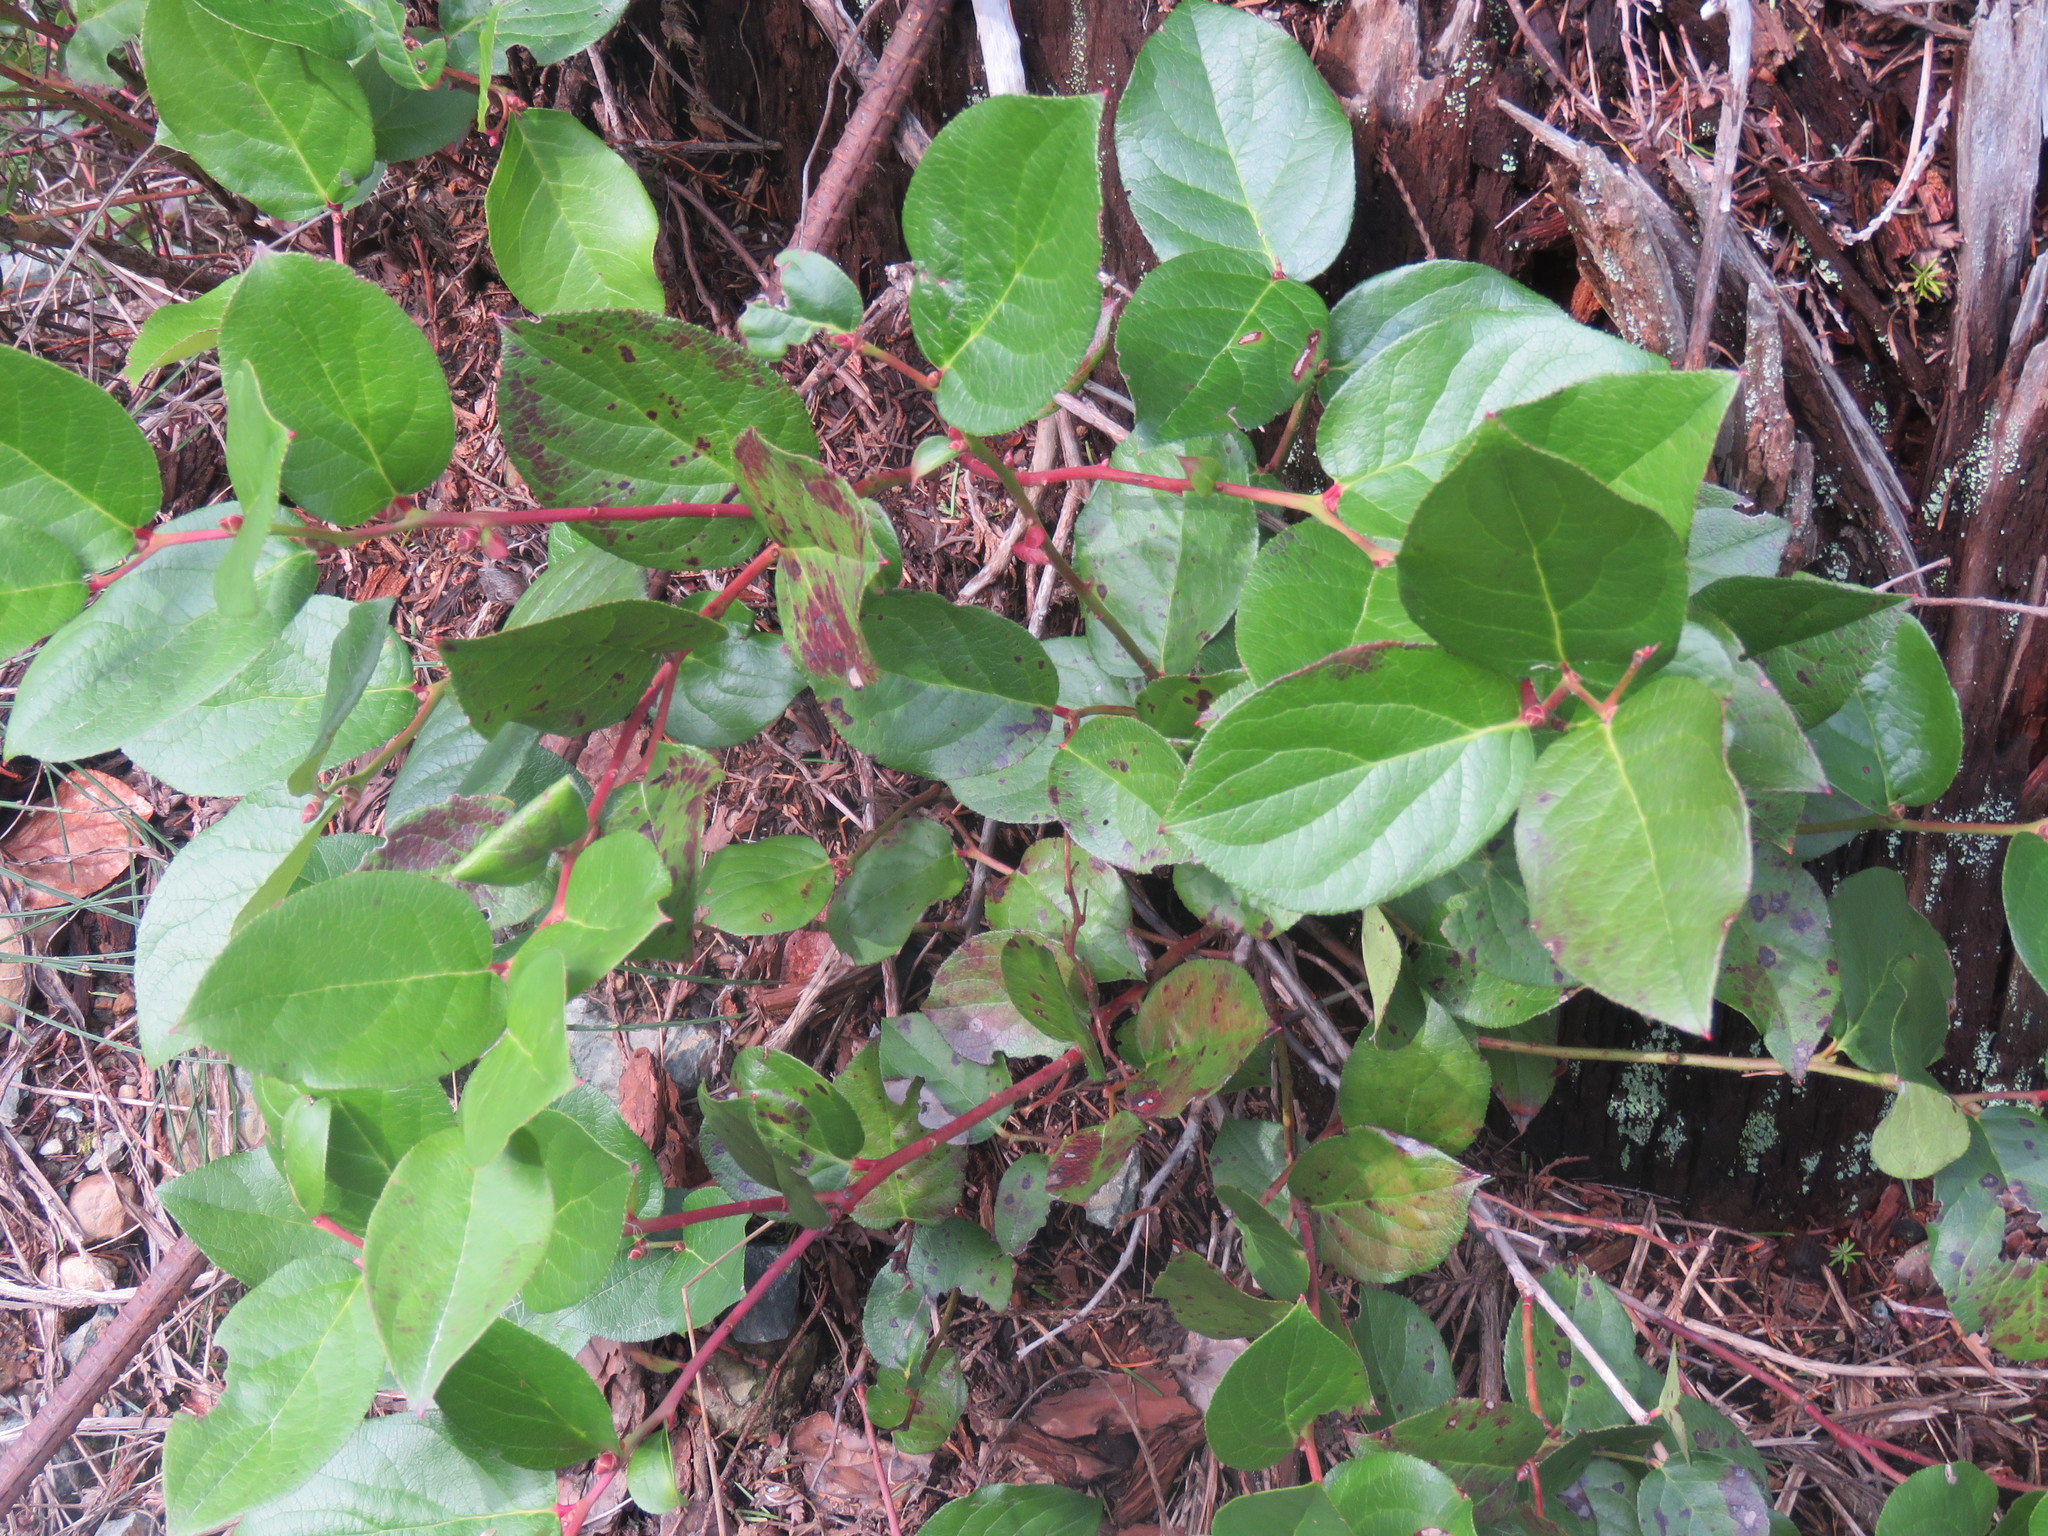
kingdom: Plantae
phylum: Tracheophyta
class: Magnoliopsida
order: Ericales
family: Ericaceae
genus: Gaultheria
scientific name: Gaultheria shallon
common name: Shallon
